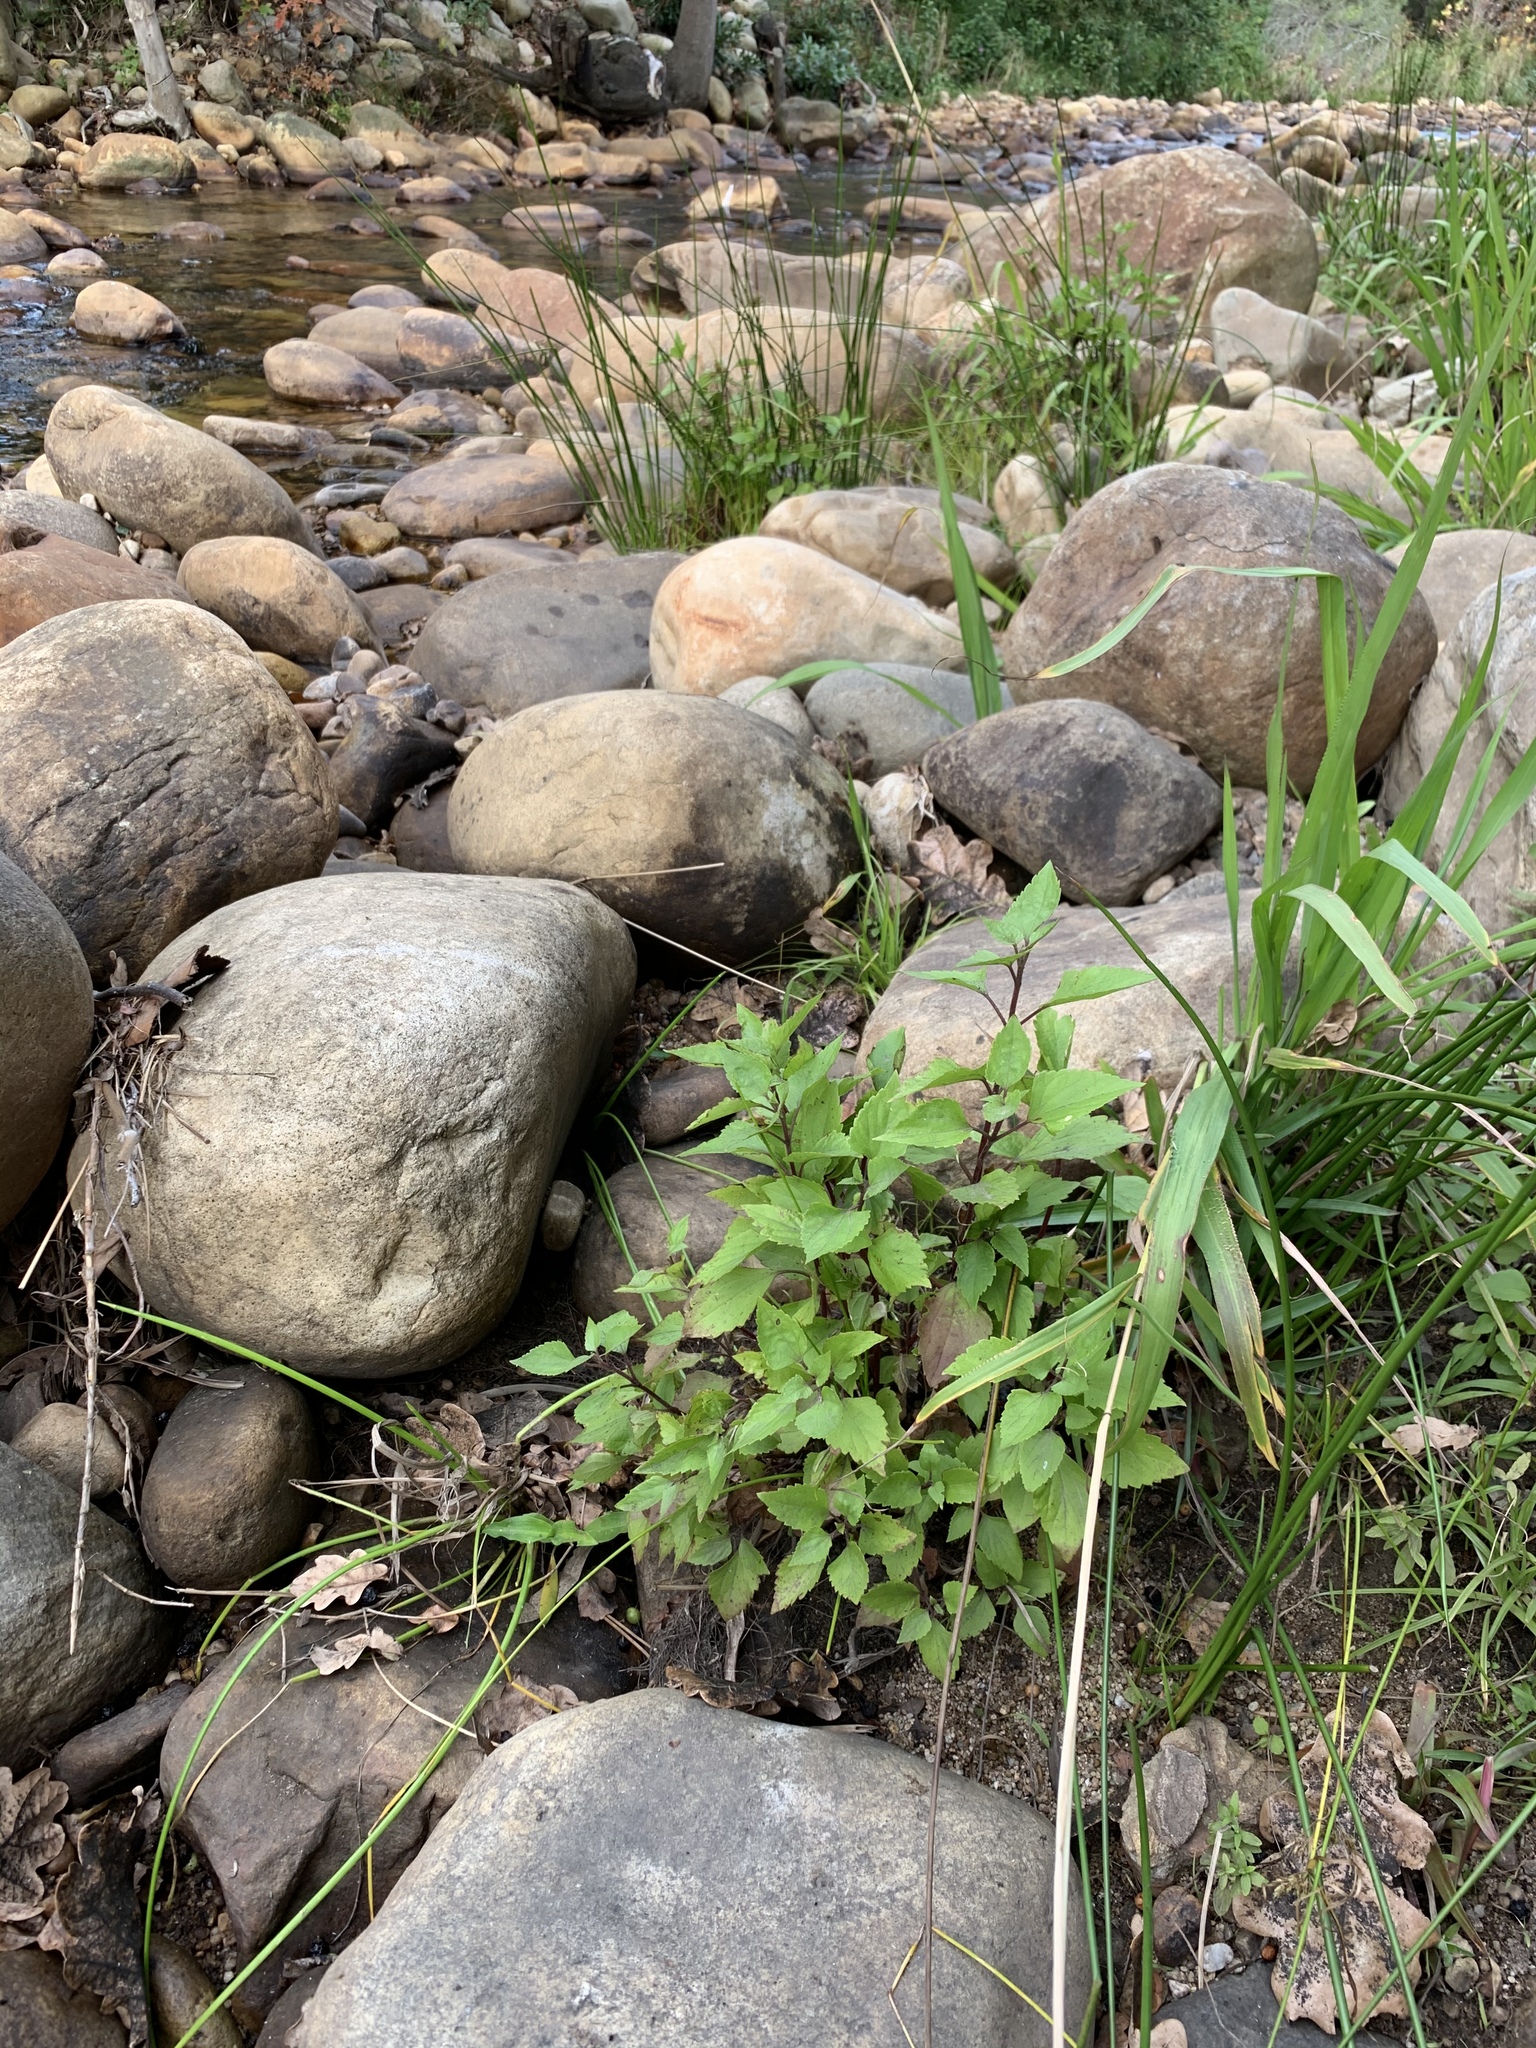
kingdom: Plantae
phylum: Tracheophyta
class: Magnoliopsida
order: Asterales
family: Asteraceae
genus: Ageratina
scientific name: Ageratina adenophora
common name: Sticky snakeroot
